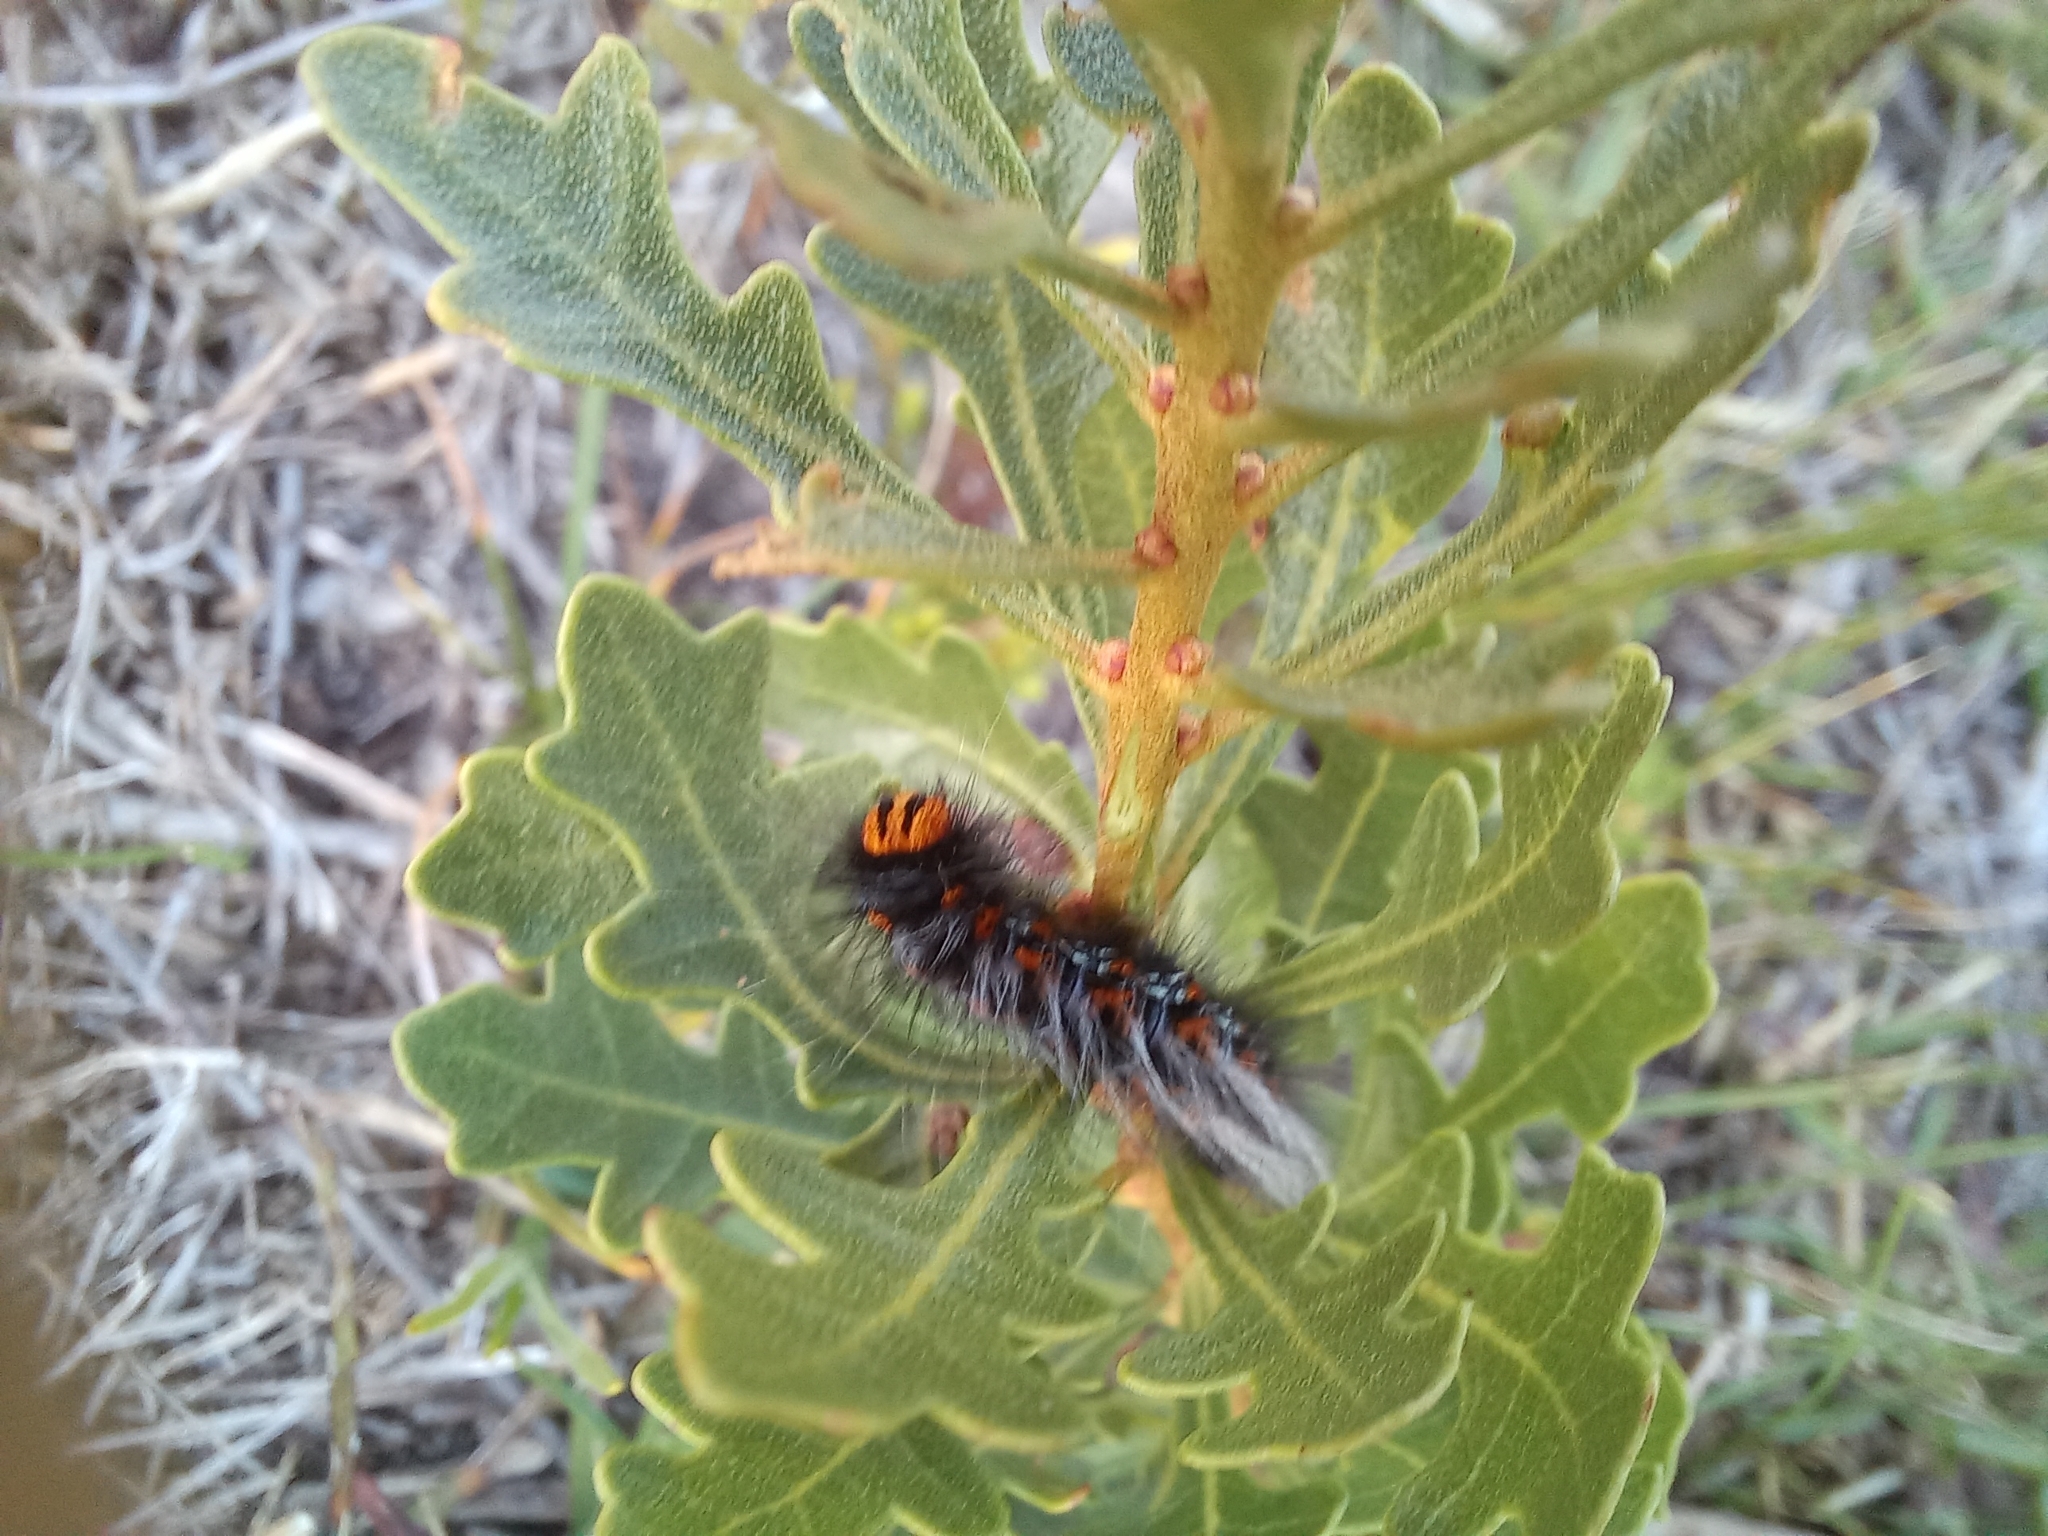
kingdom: Animalia
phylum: Arthropoda
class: Insecta
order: Lepidoptera
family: Lasiocampidae
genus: Mesocelis
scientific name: Mesocelis monticola
